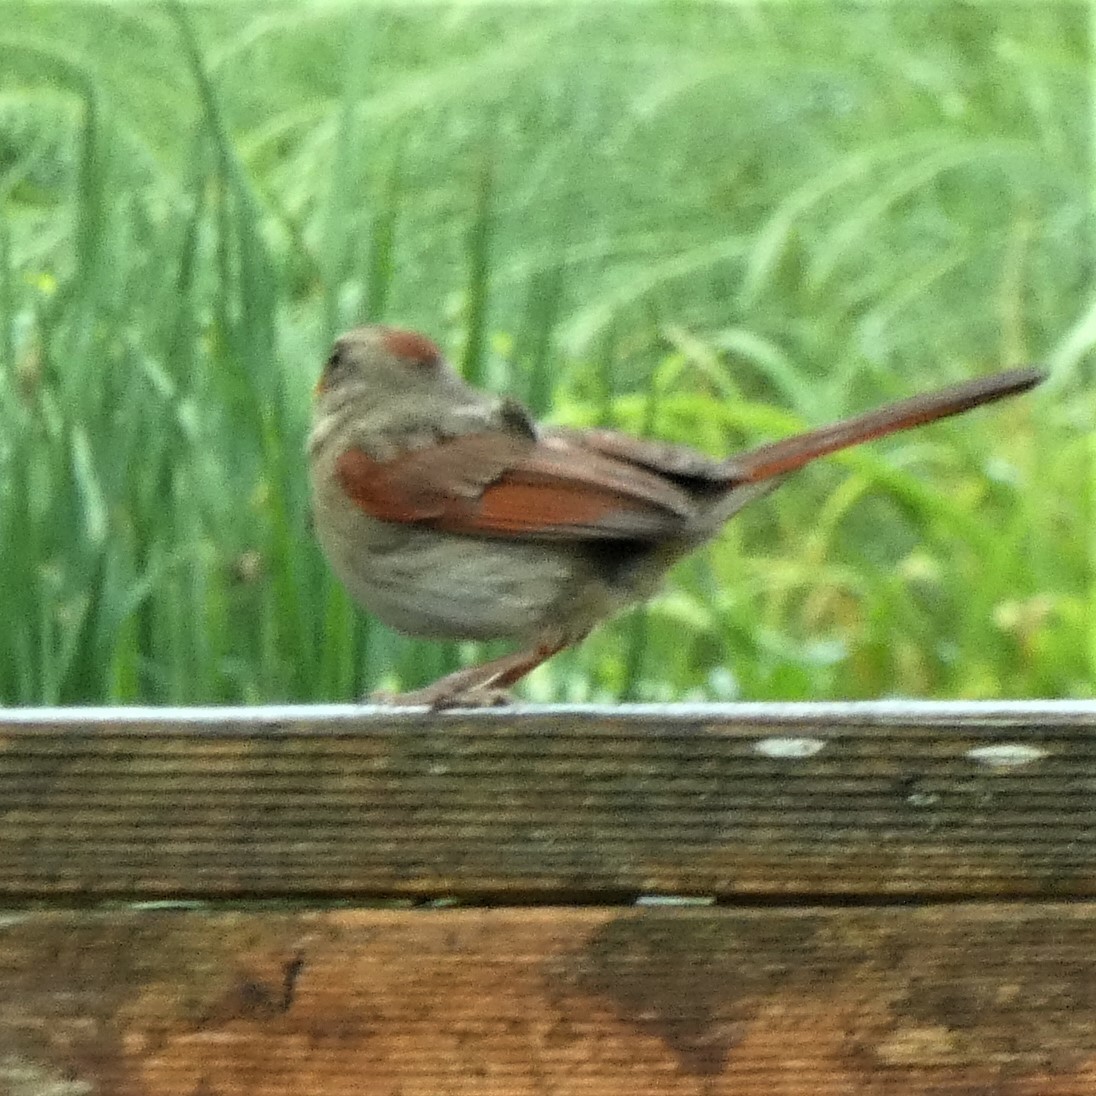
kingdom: Animalia
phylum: Chordata
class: Aves
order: Passeriformes
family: Cardinalidae
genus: Cardinalis
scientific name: Cardinalis cardinalis
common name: Northern cardinal
